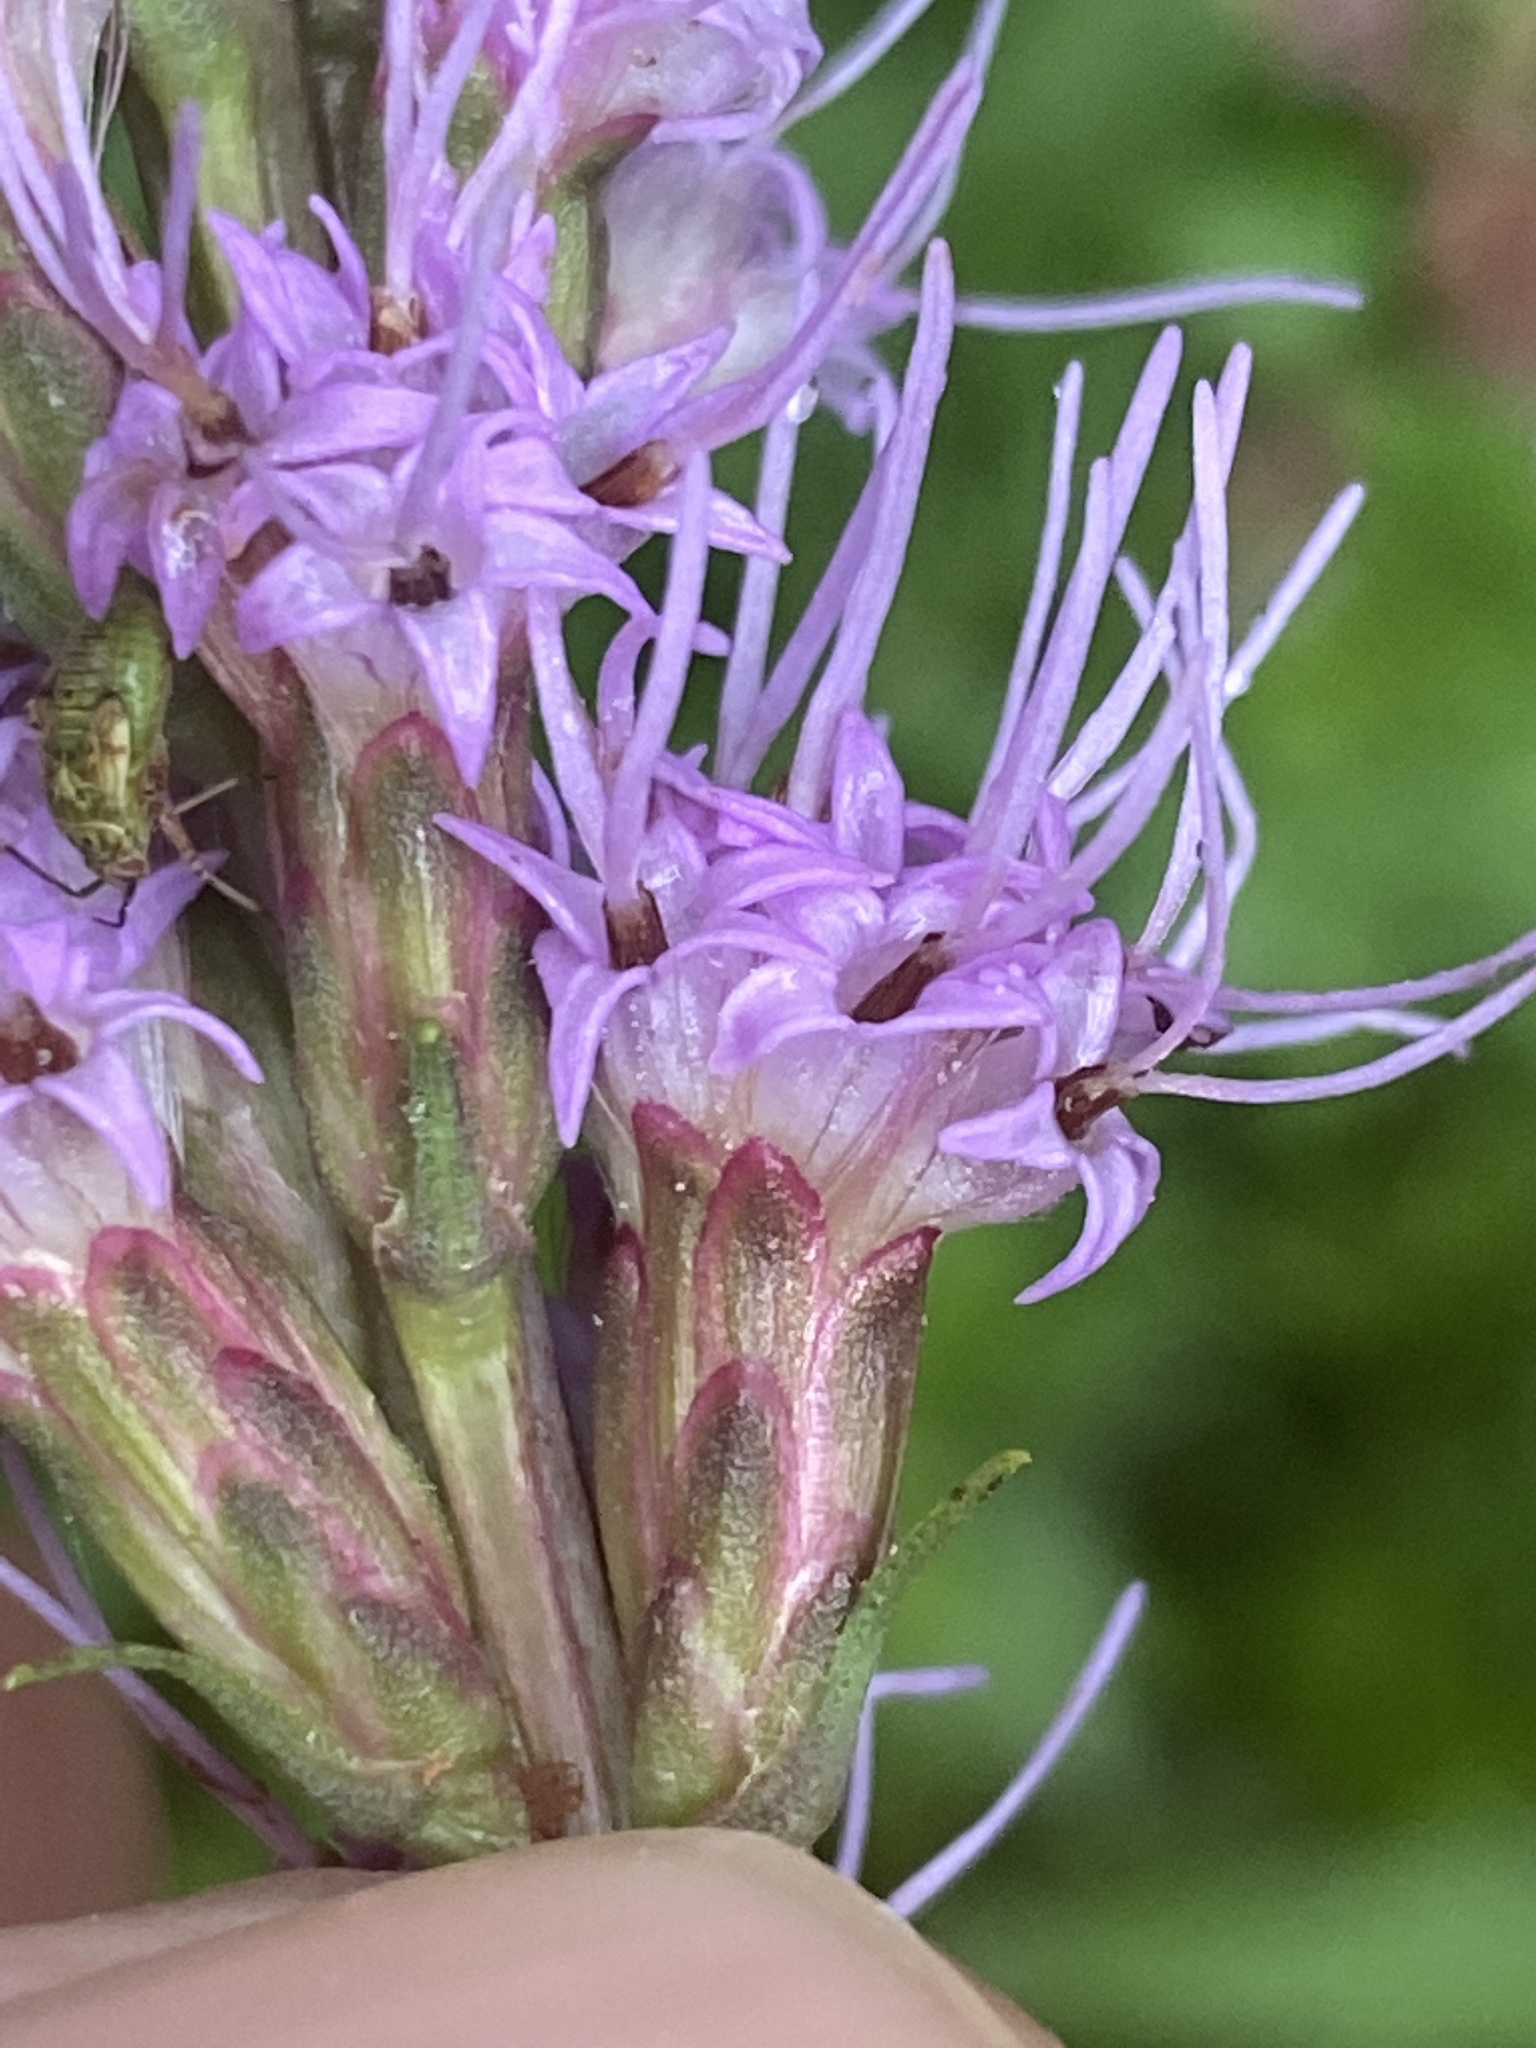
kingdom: Plantae
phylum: Tracheophyta
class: Magnoliopsida
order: Asterales
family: Asteraceae
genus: Liatris
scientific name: Liatris spicata
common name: Florist gayfeather
